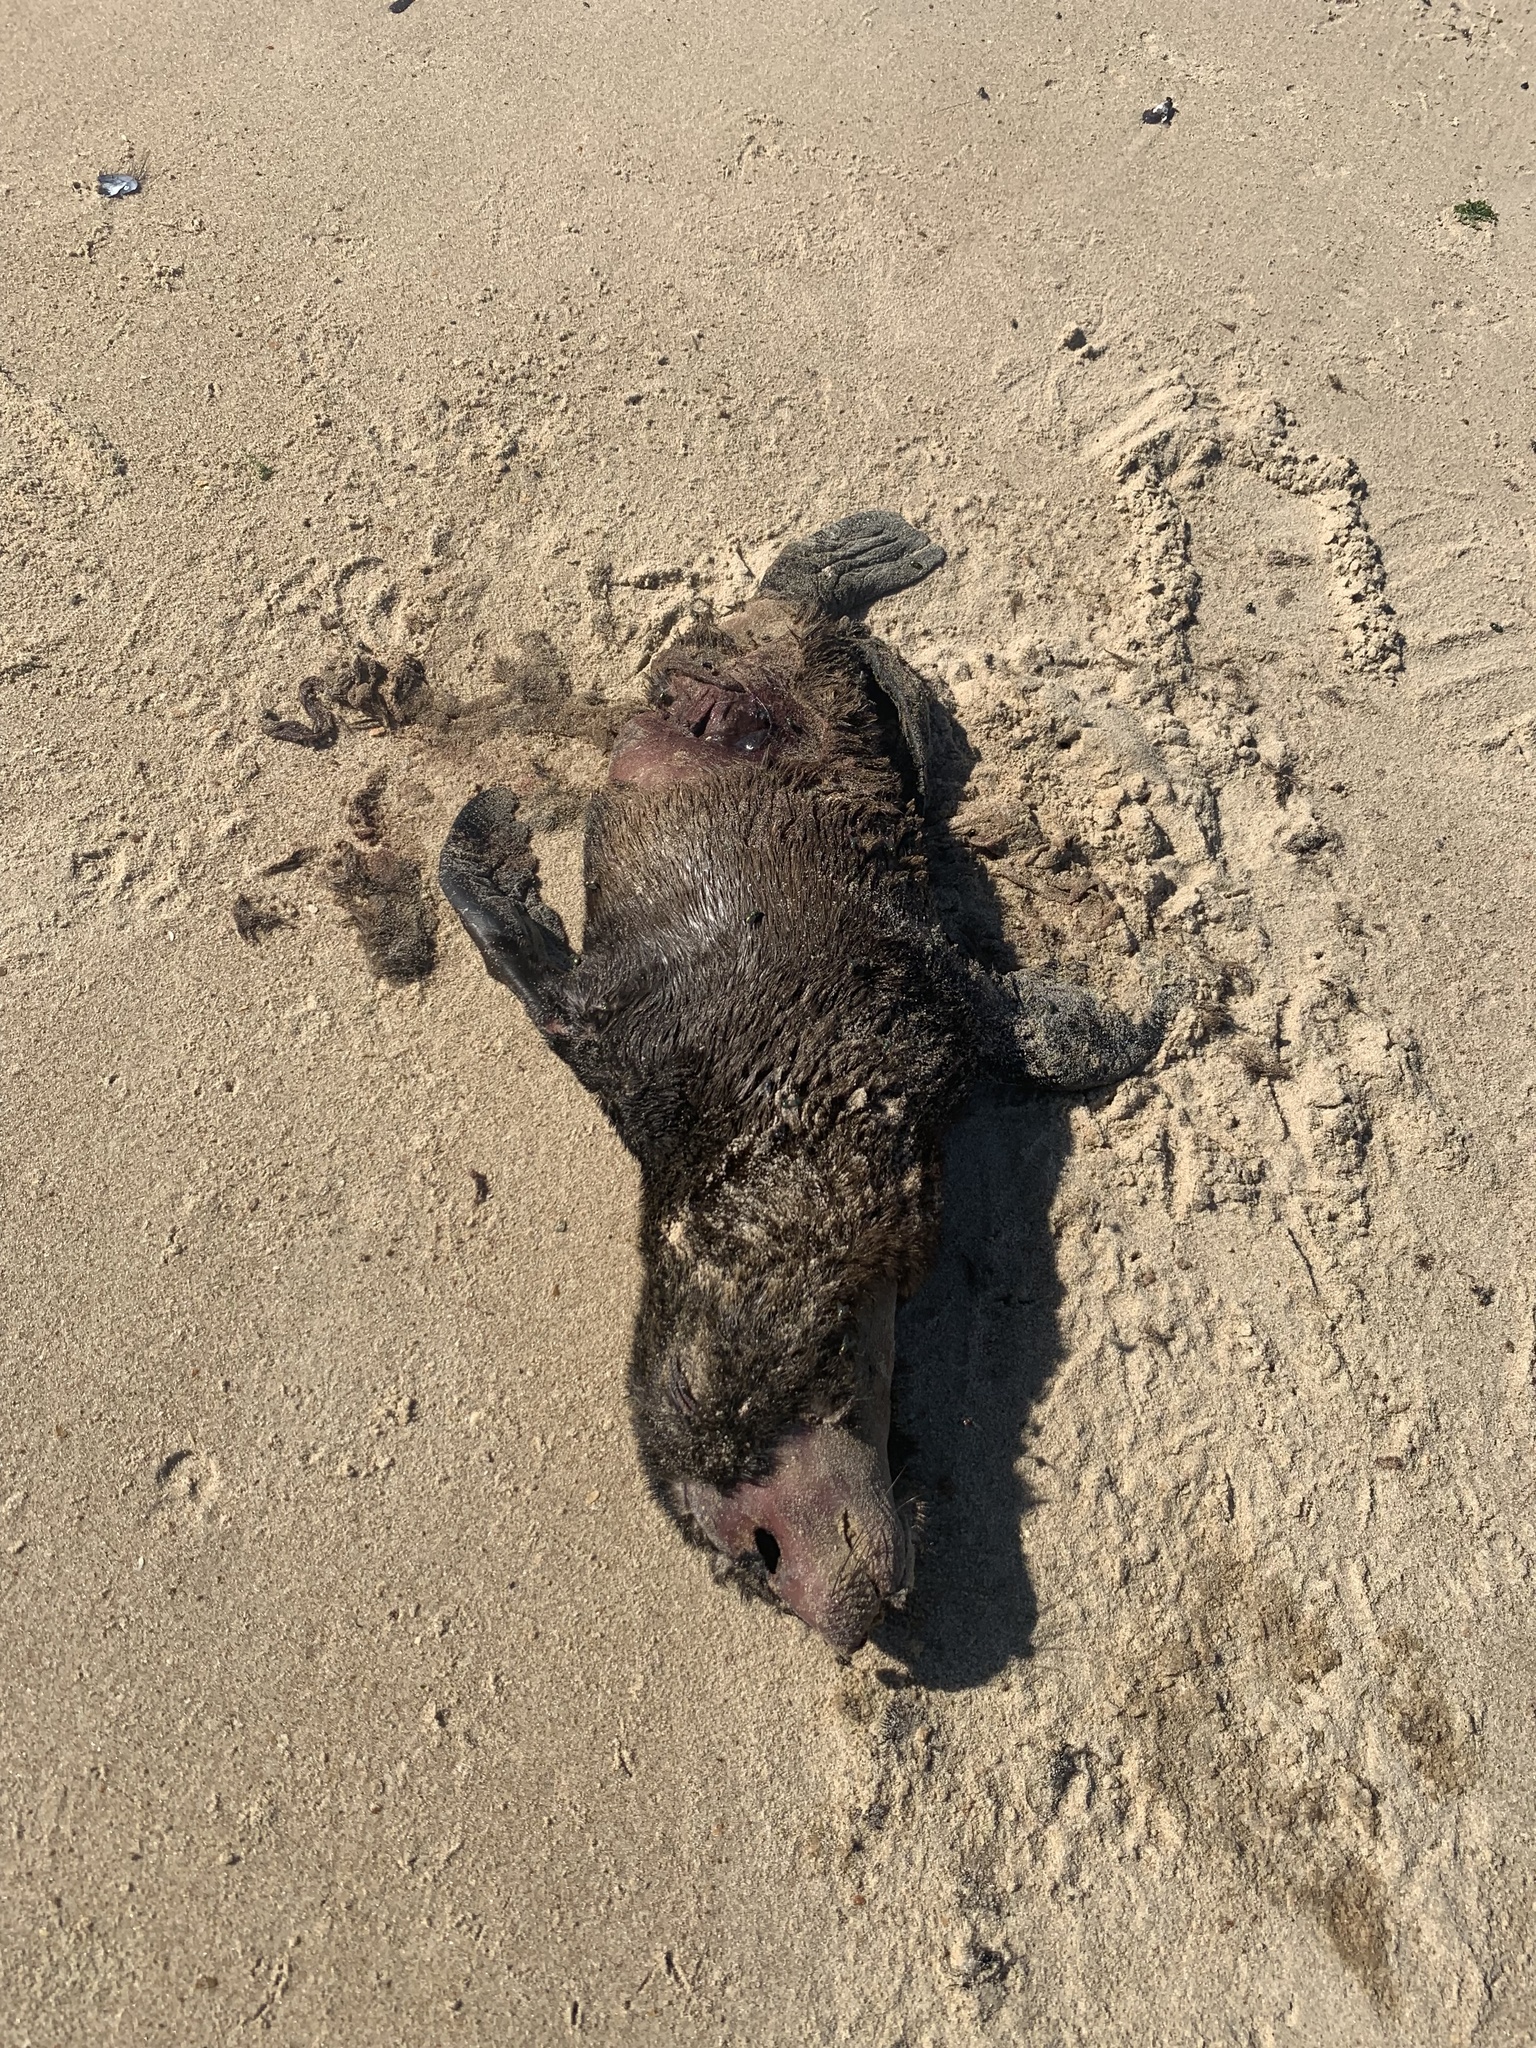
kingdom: Animalia
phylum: Chordata
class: Mammalia
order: Carnivora
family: Otariidae
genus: Arctocephalus
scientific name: Arctocephalus australis
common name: South american fur seal
